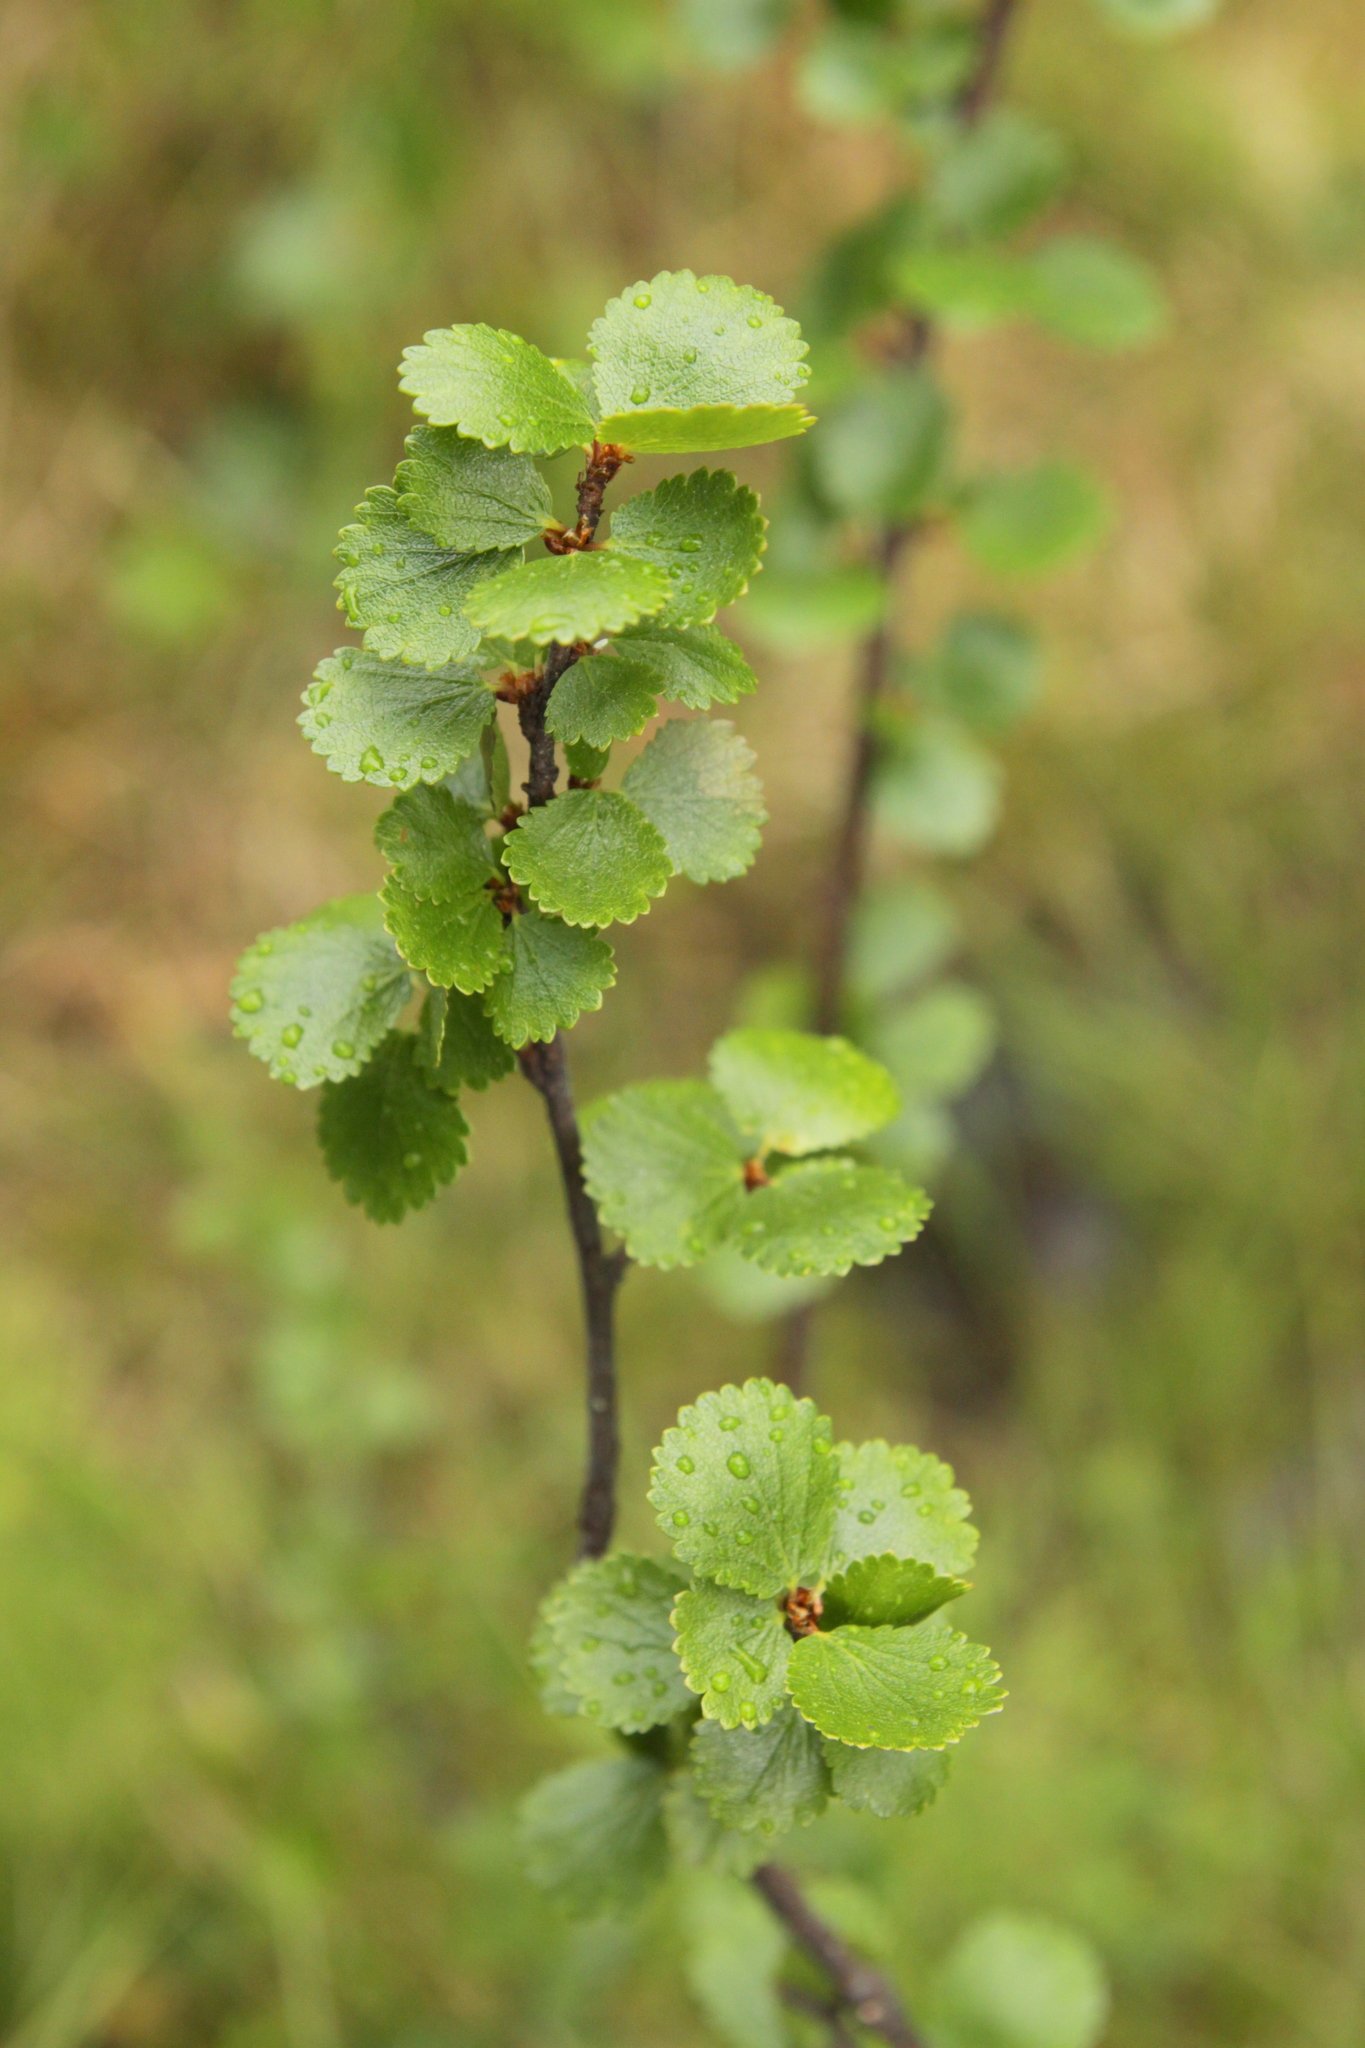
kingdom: Plantae
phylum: Tracheophyta
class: Magnoliopsida
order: Fagales
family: Betulaceae
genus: Betula
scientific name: Betula nana
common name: Arctic dwarf birch
